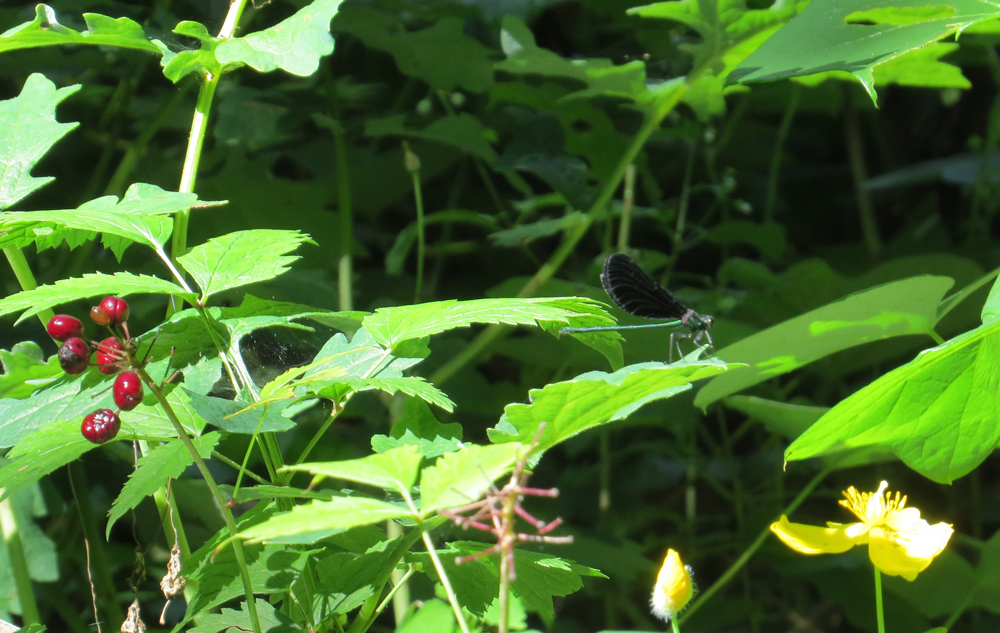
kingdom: Animalia
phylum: Arthropoda
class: Insecta
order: Odonata
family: Calopterygidae
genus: Calopteryx
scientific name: Calopteryx maculata
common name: Ebony jewelwing
